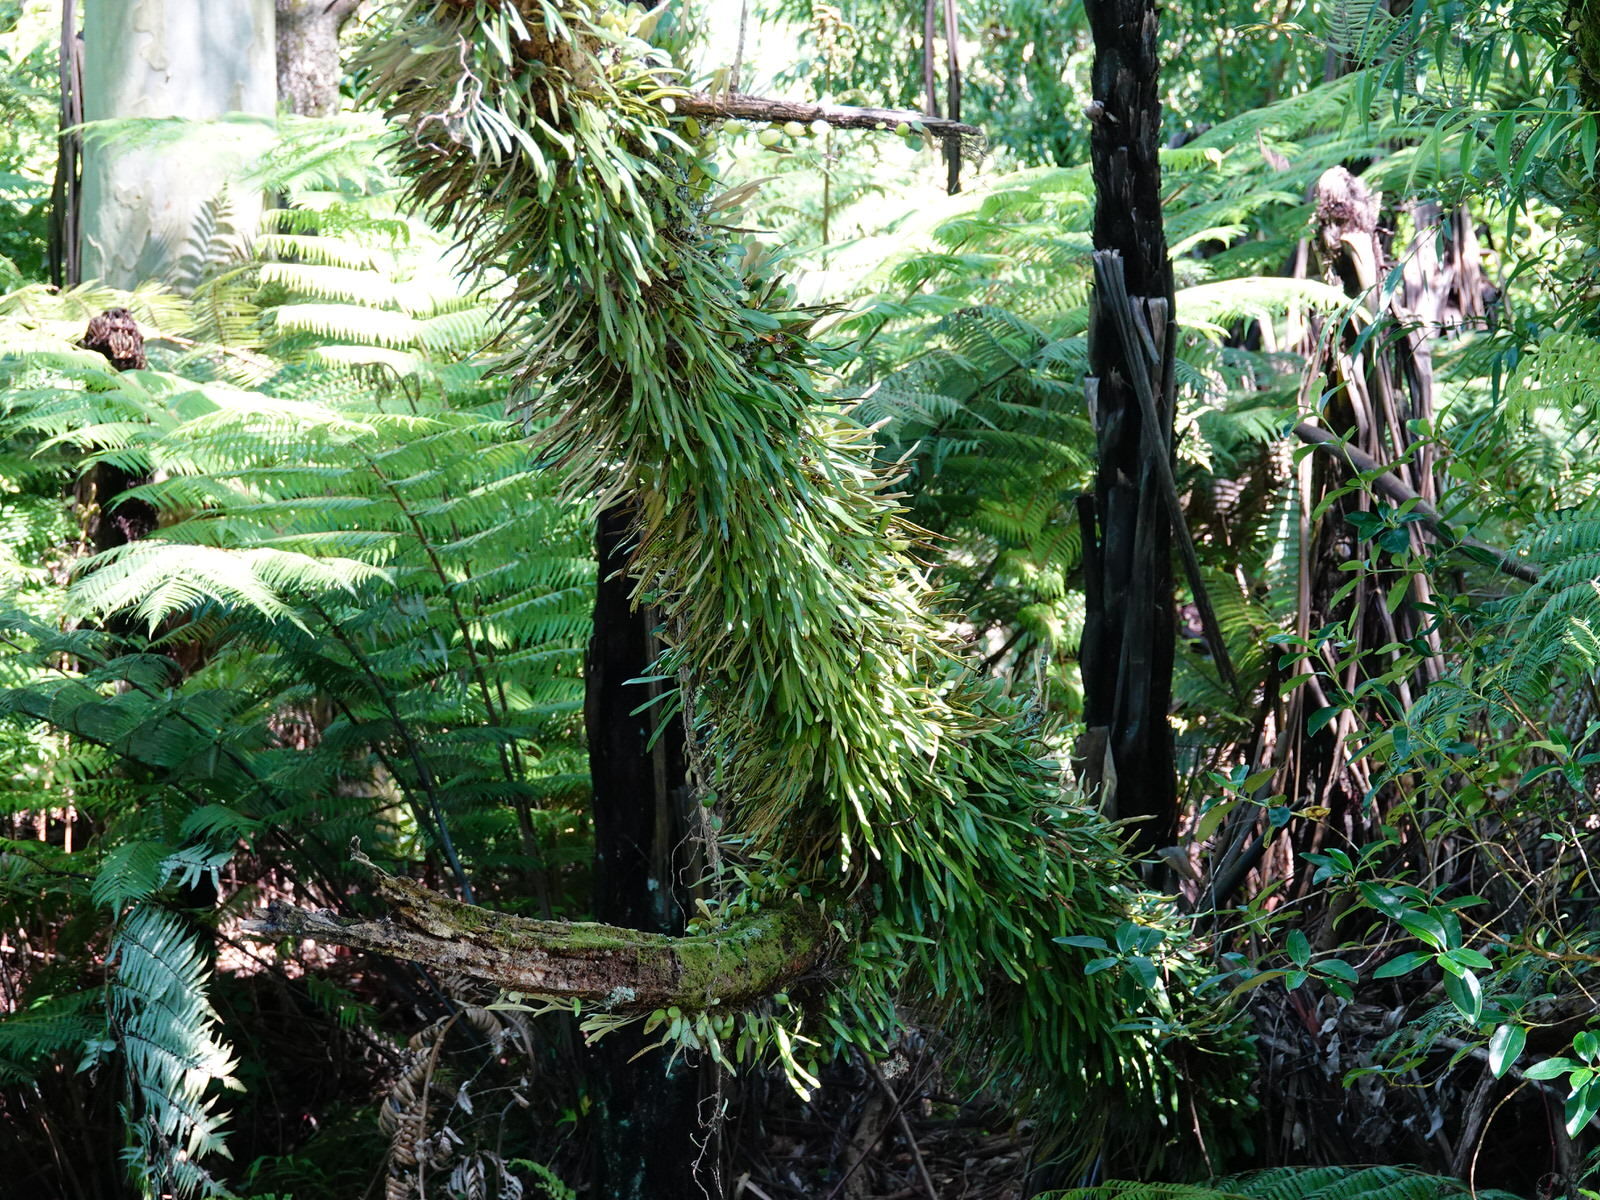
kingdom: Plantae
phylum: Tracheophyta
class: Polypodiopsida
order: Polypodiales
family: Polypodiaceae
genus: Pyrrosia
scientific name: Pyrrosia eleagnifolia
